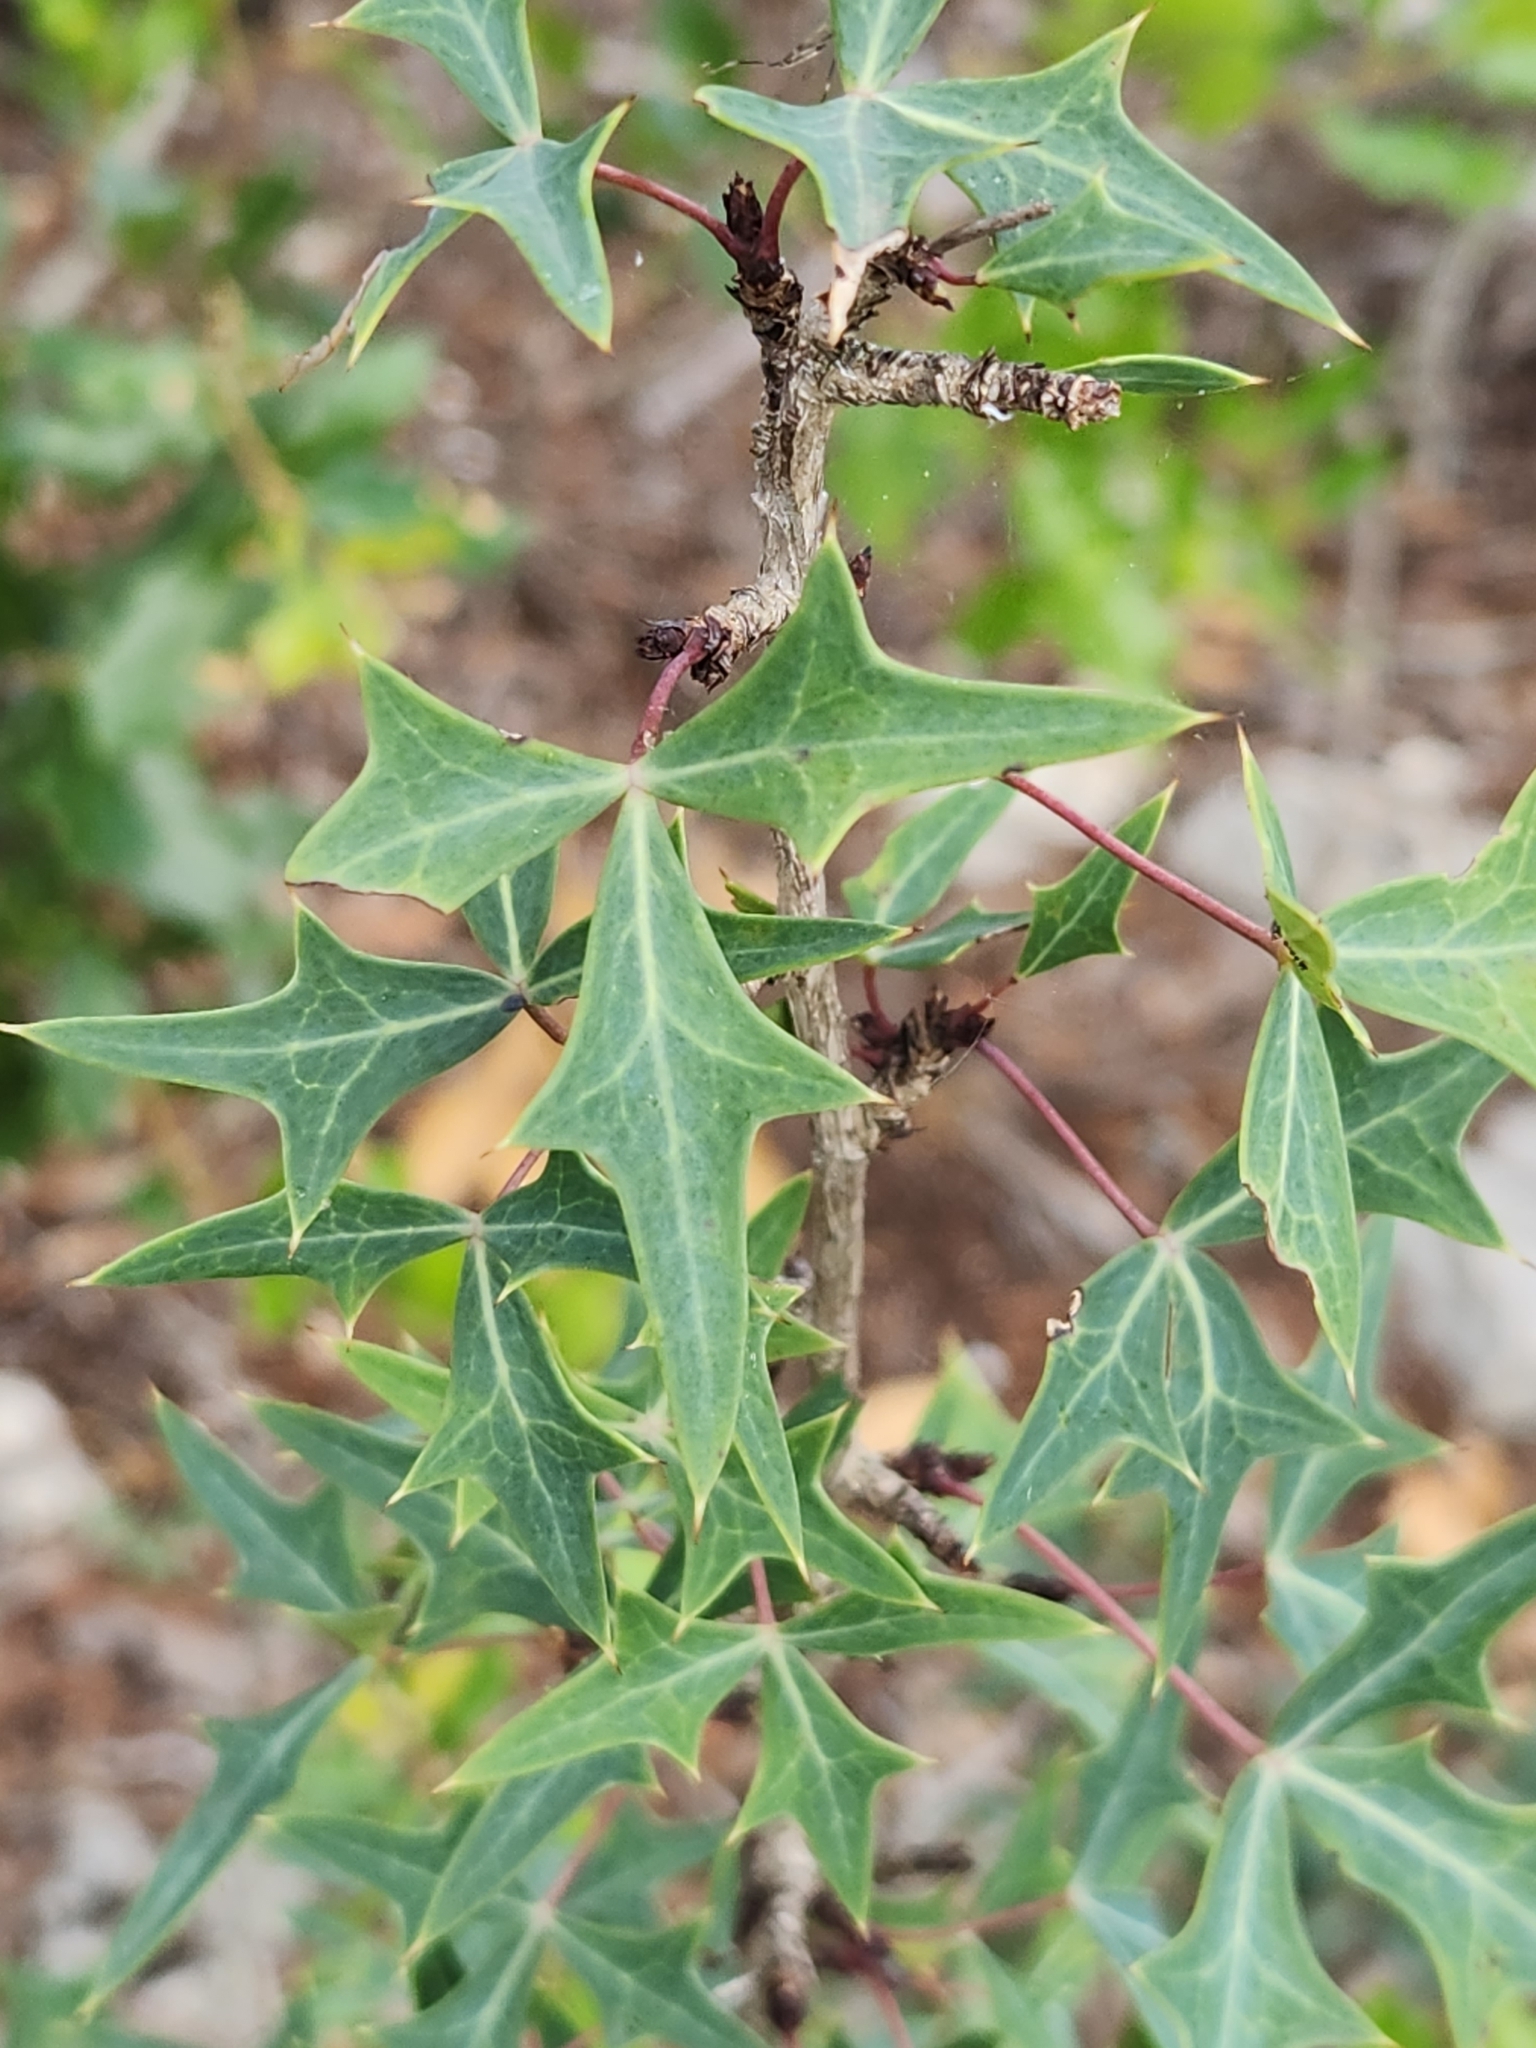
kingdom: Plantae
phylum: Tracheophyta
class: Magnoliopsida
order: Ranunculales
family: Berberidaceae
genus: Alloberberis
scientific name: Alloberberis trifoliolata
